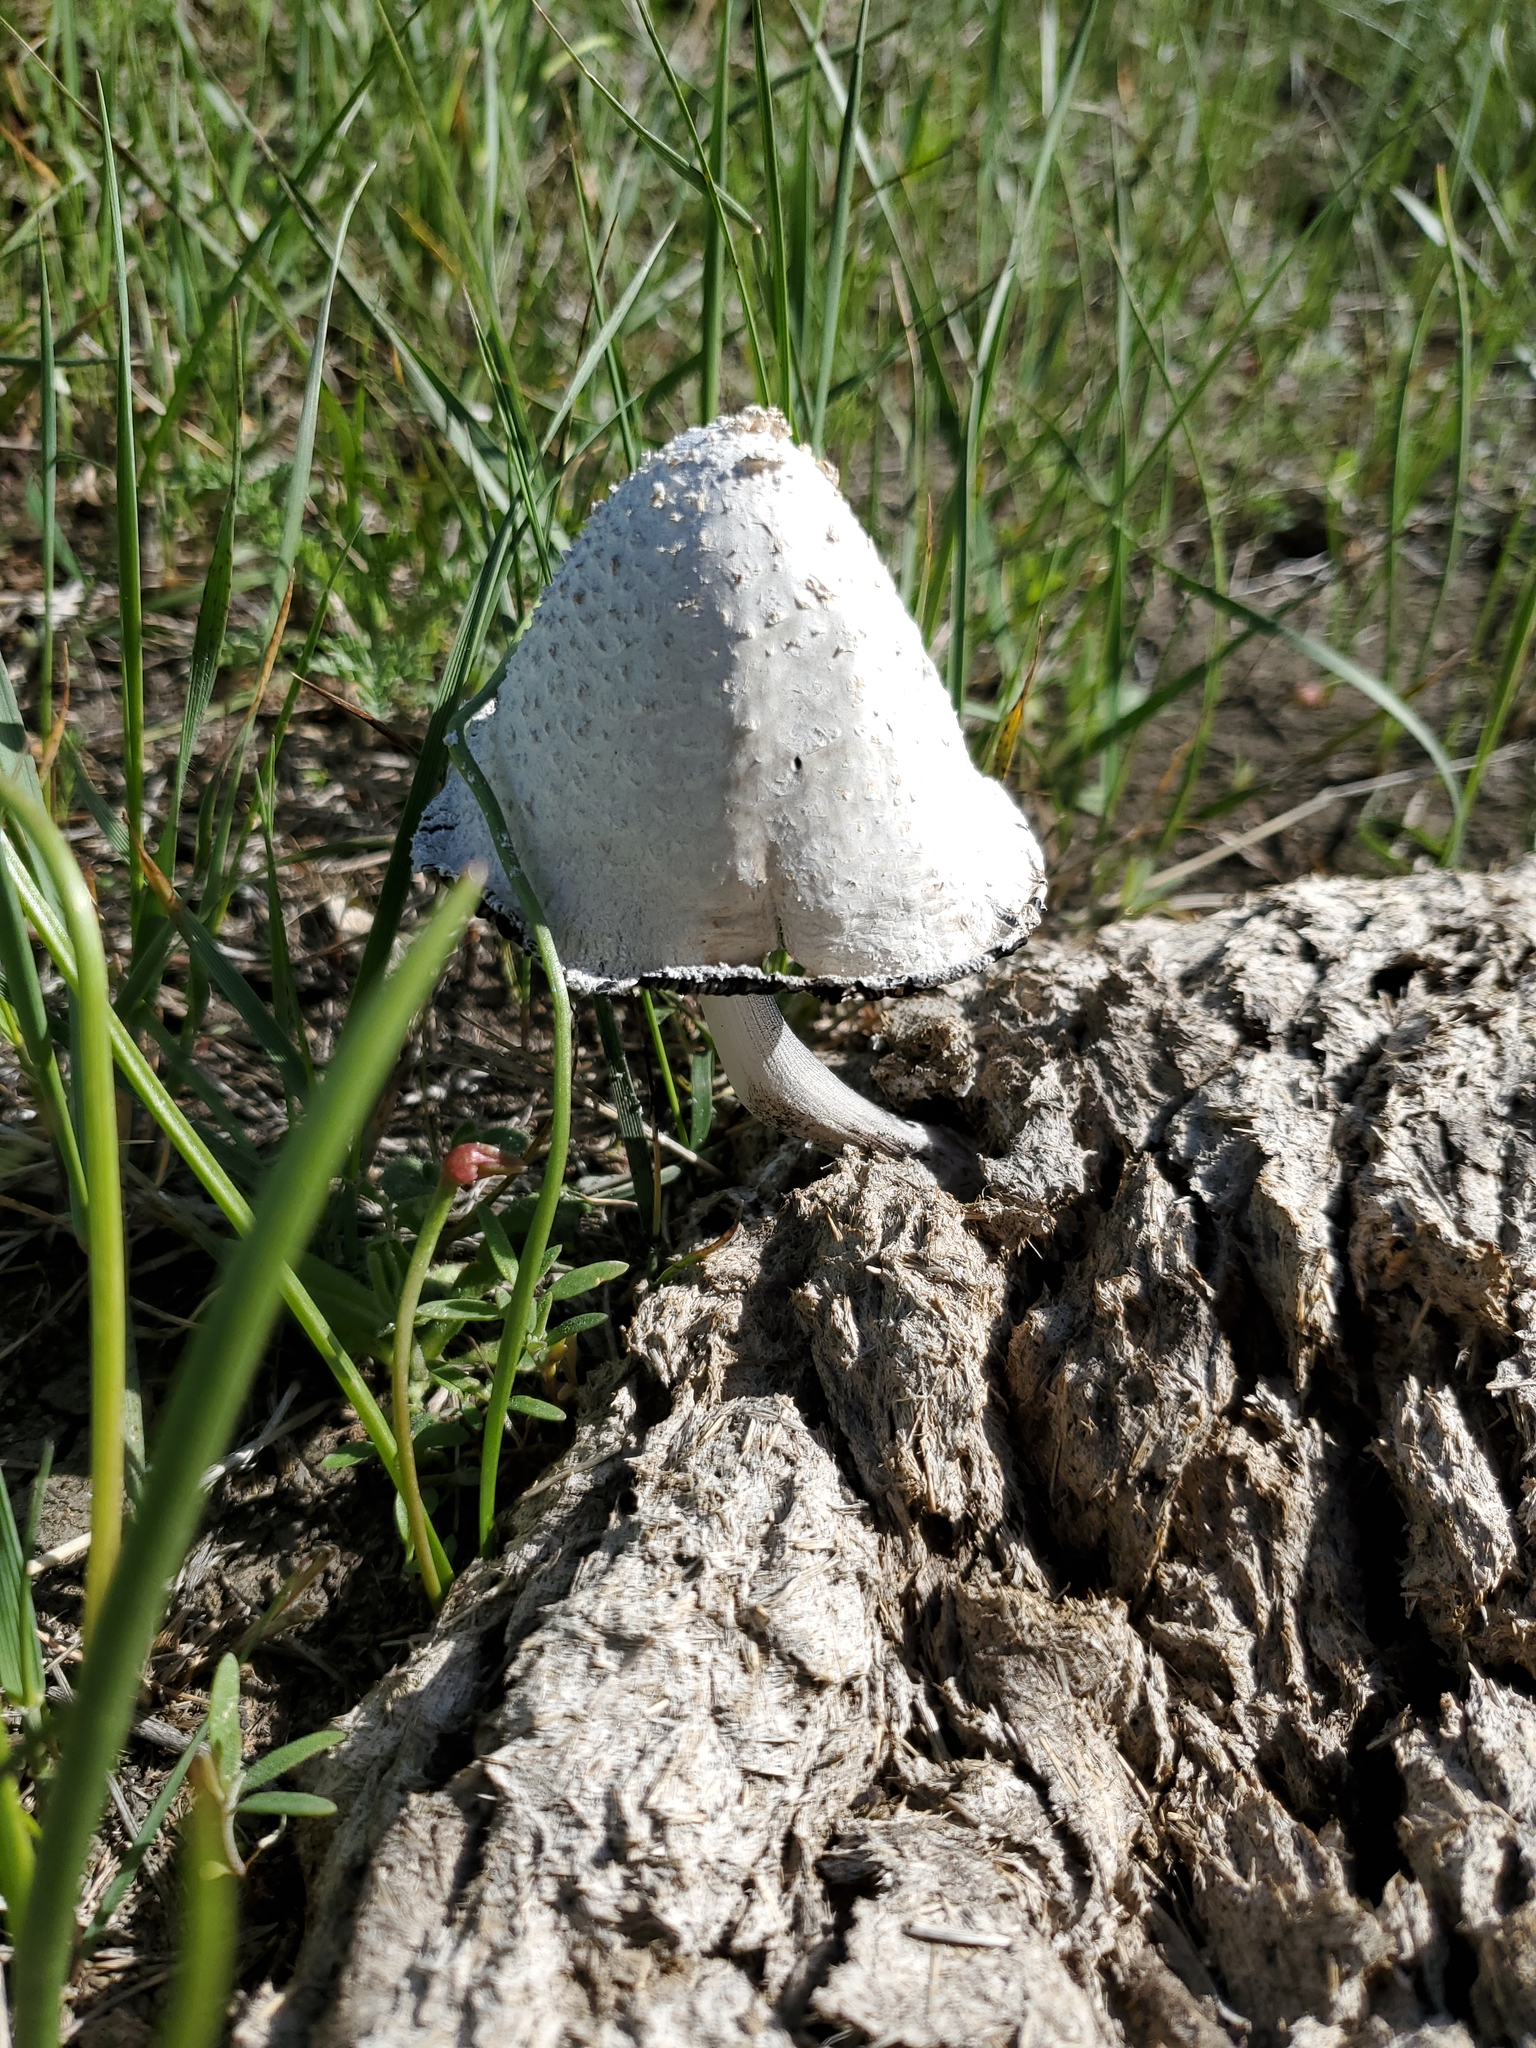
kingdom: Fungi
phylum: Basidiomycota
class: Agaricomycetes
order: Agaricales
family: Psathyrellaceae
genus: Coprinopsis
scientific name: Coprinopsis nivea
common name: Snowy inkcap
